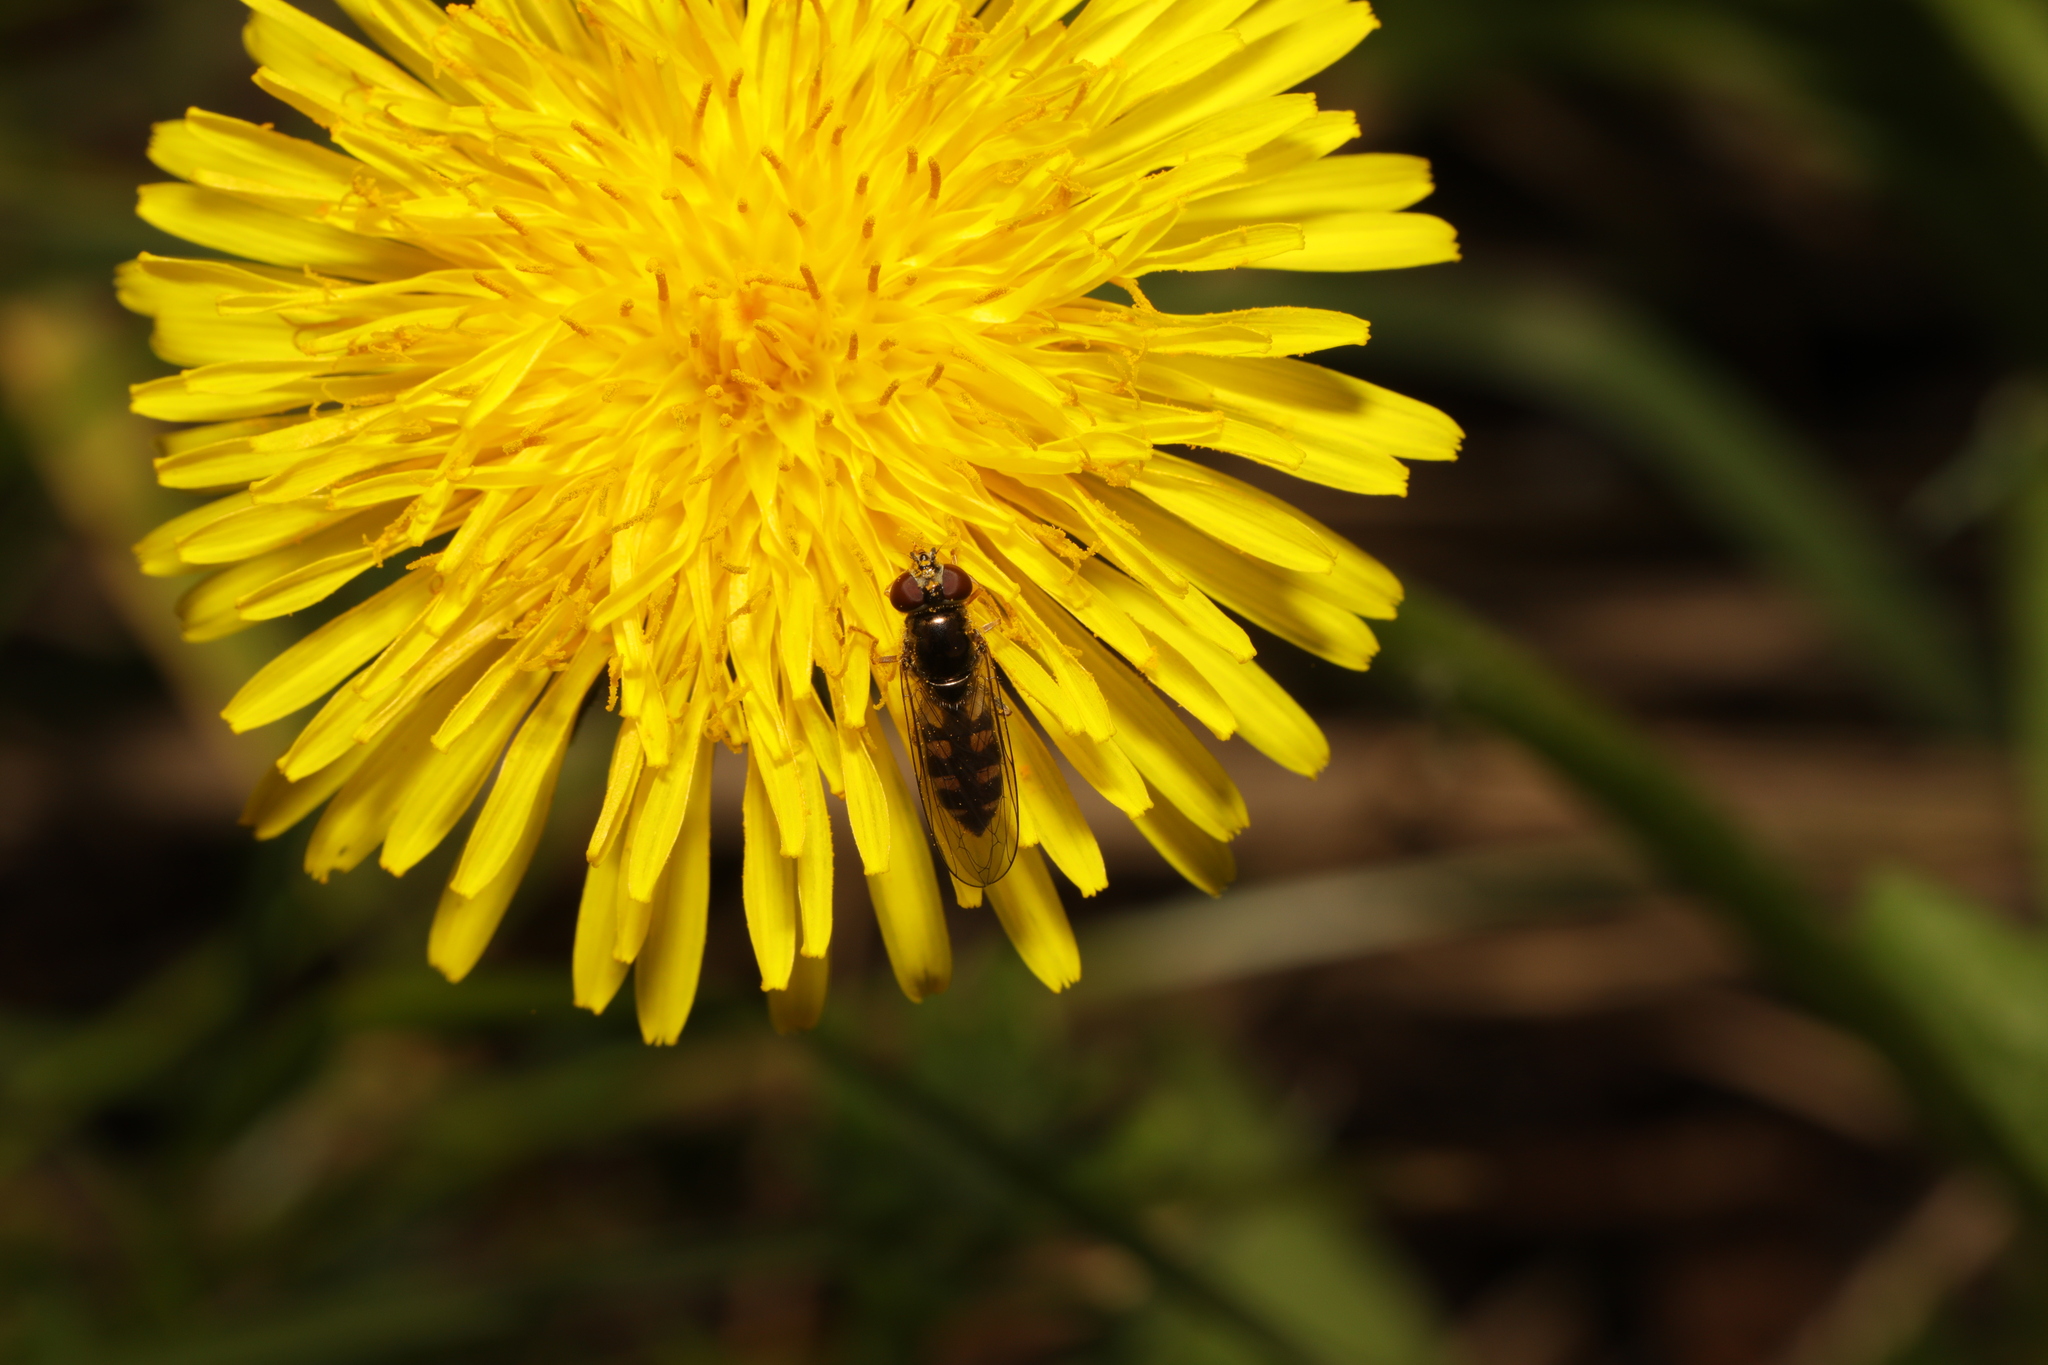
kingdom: Animalia
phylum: Arthropoda
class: Insecta
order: Diptera
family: Syrphidae
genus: Melanostoma
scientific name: Melanostoma scalare
